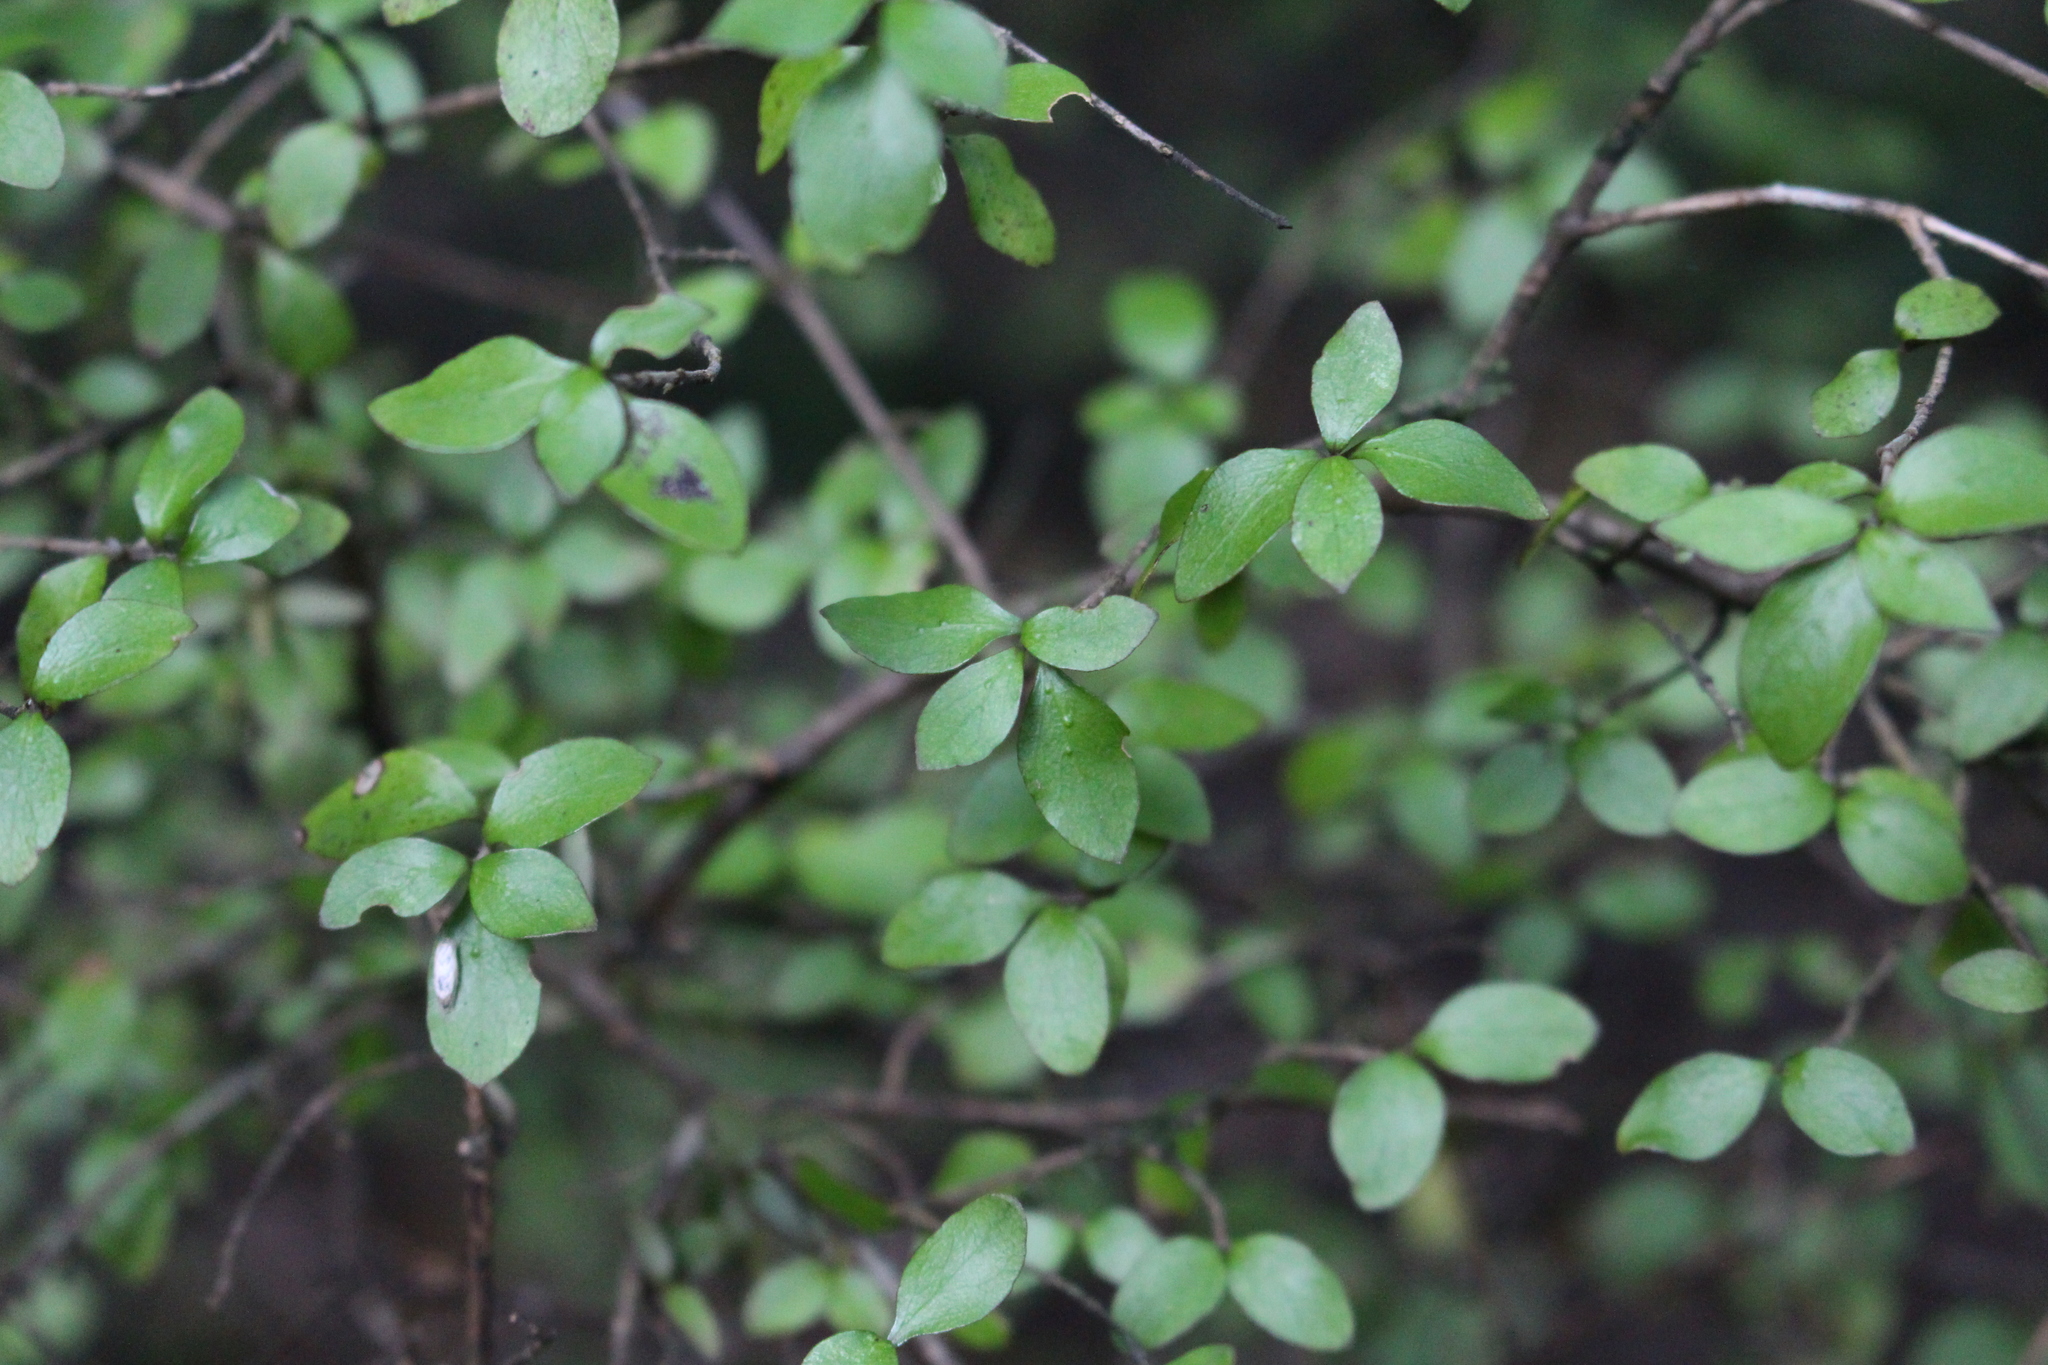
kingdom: Plantae
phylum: Tracheophyta
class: Magnoliopsida
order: Gentianales
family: Rubiaceae
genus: Coprosma
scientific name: Coprosma rhamnoides
